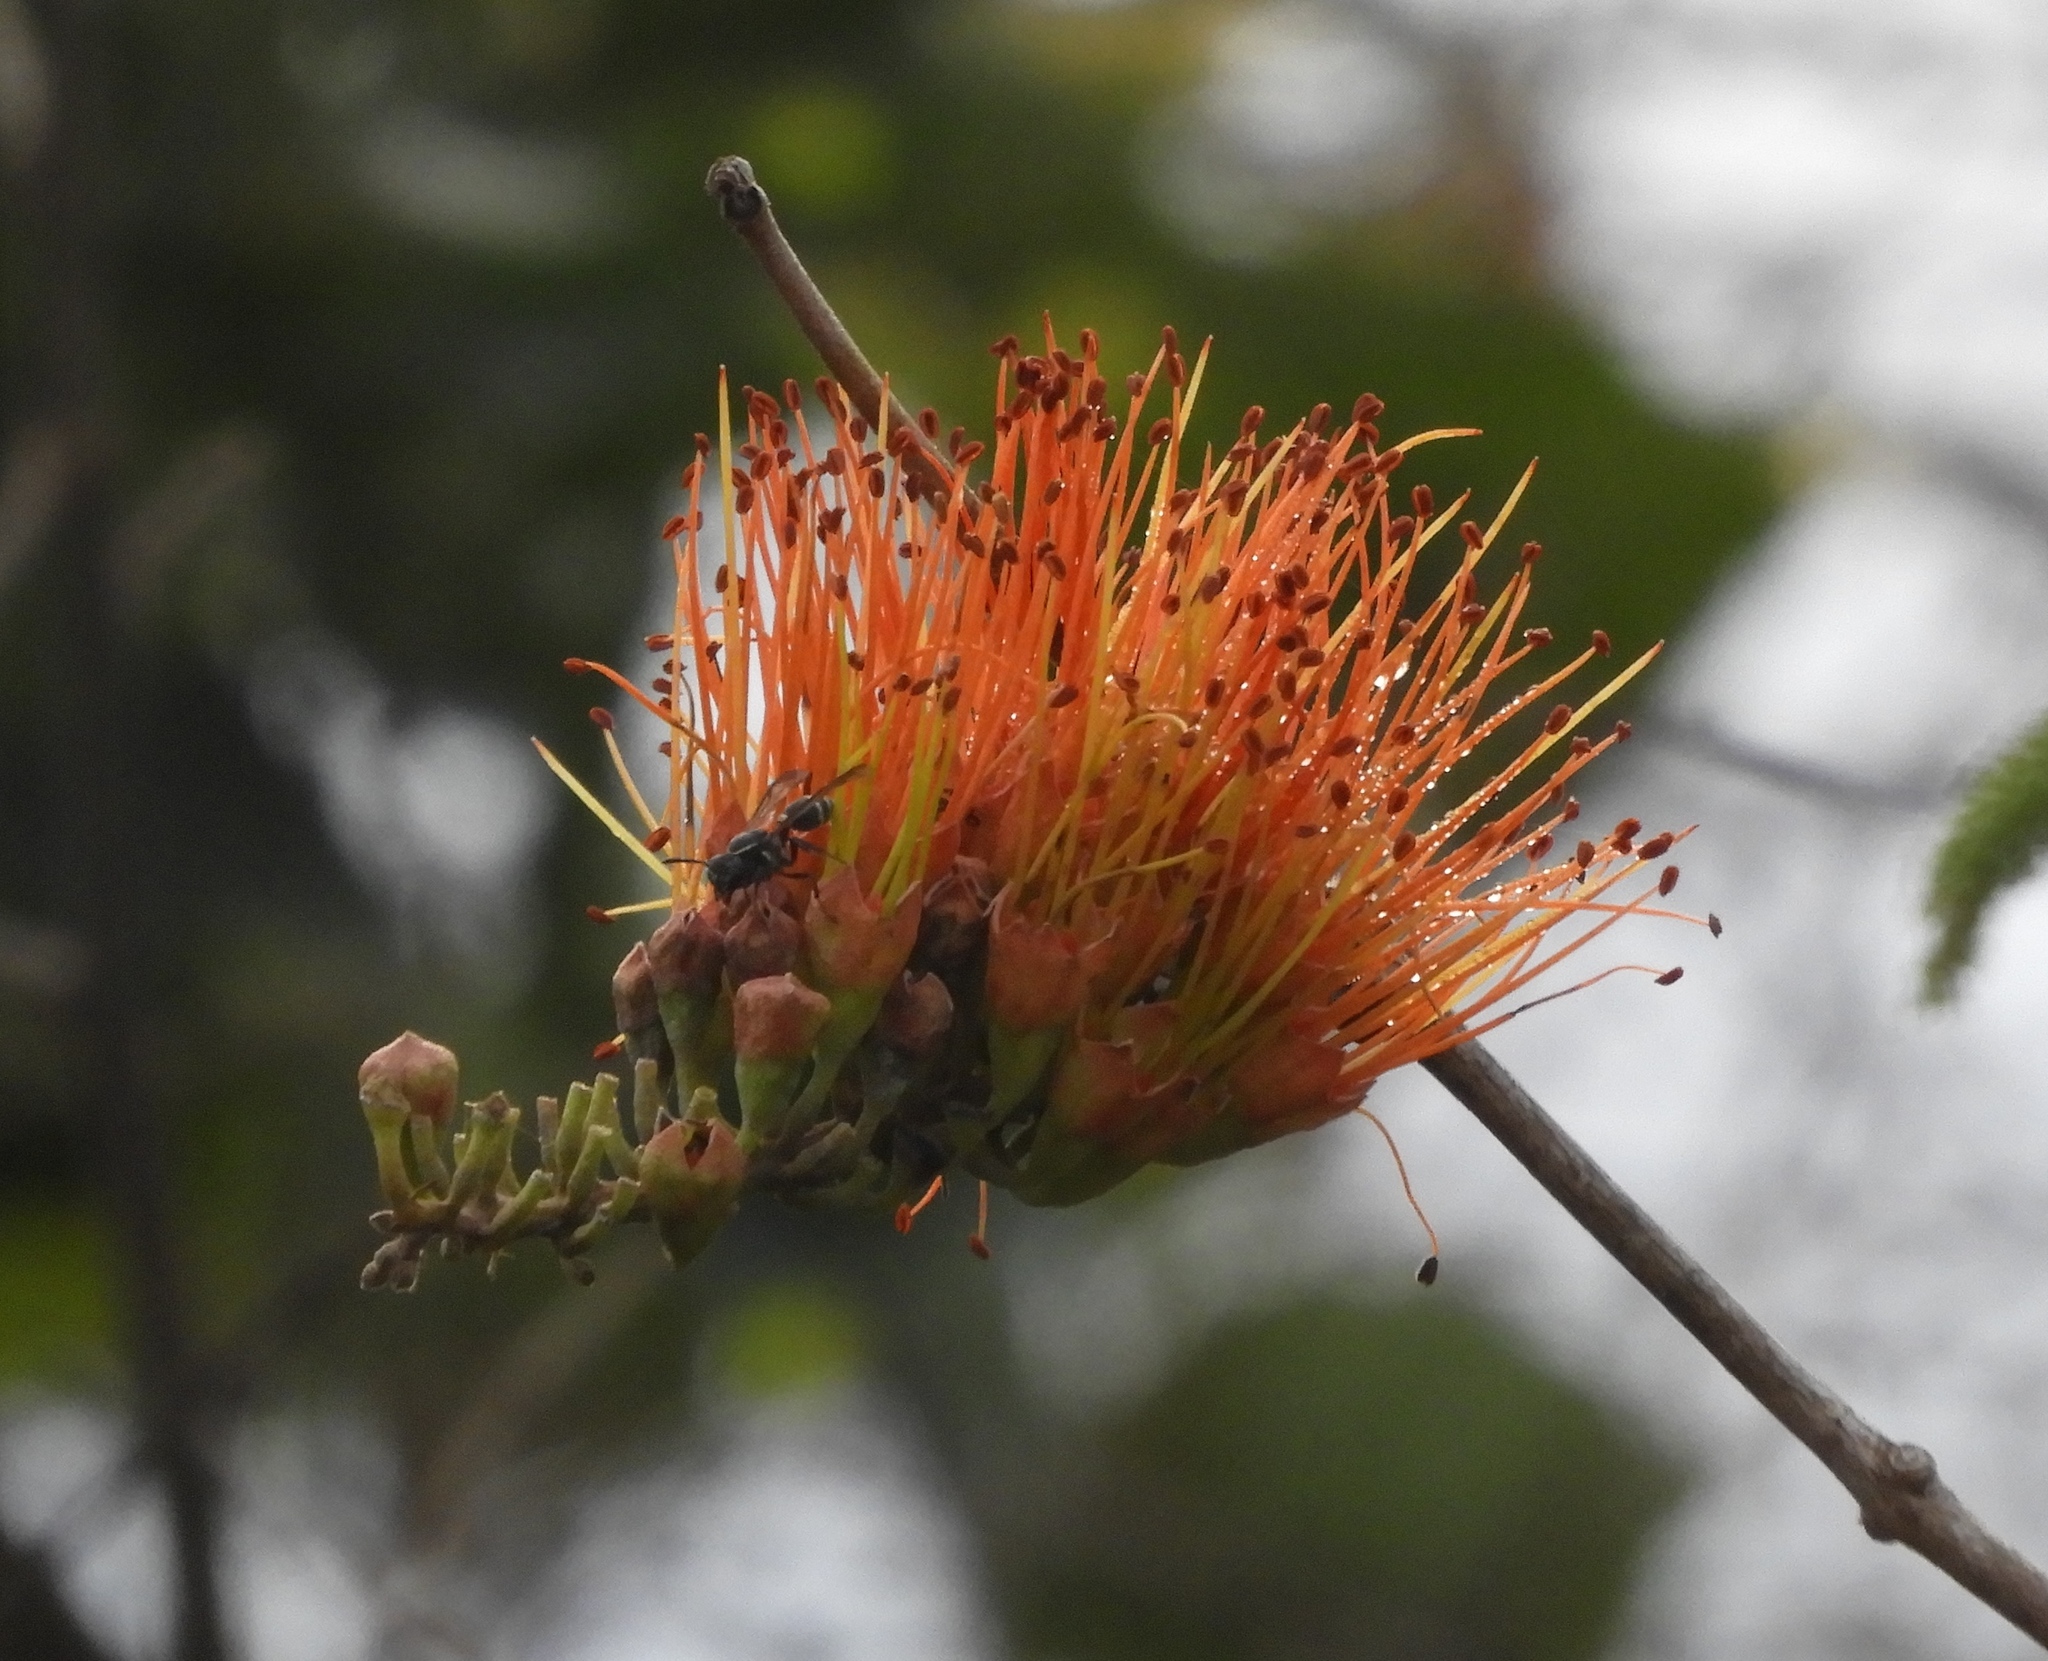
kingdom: Plantae
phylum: Tracheophyta
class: Magnoliopsida
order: Myrtales
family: Combretaceae
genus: Combretum
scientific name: Combretum farinosum
